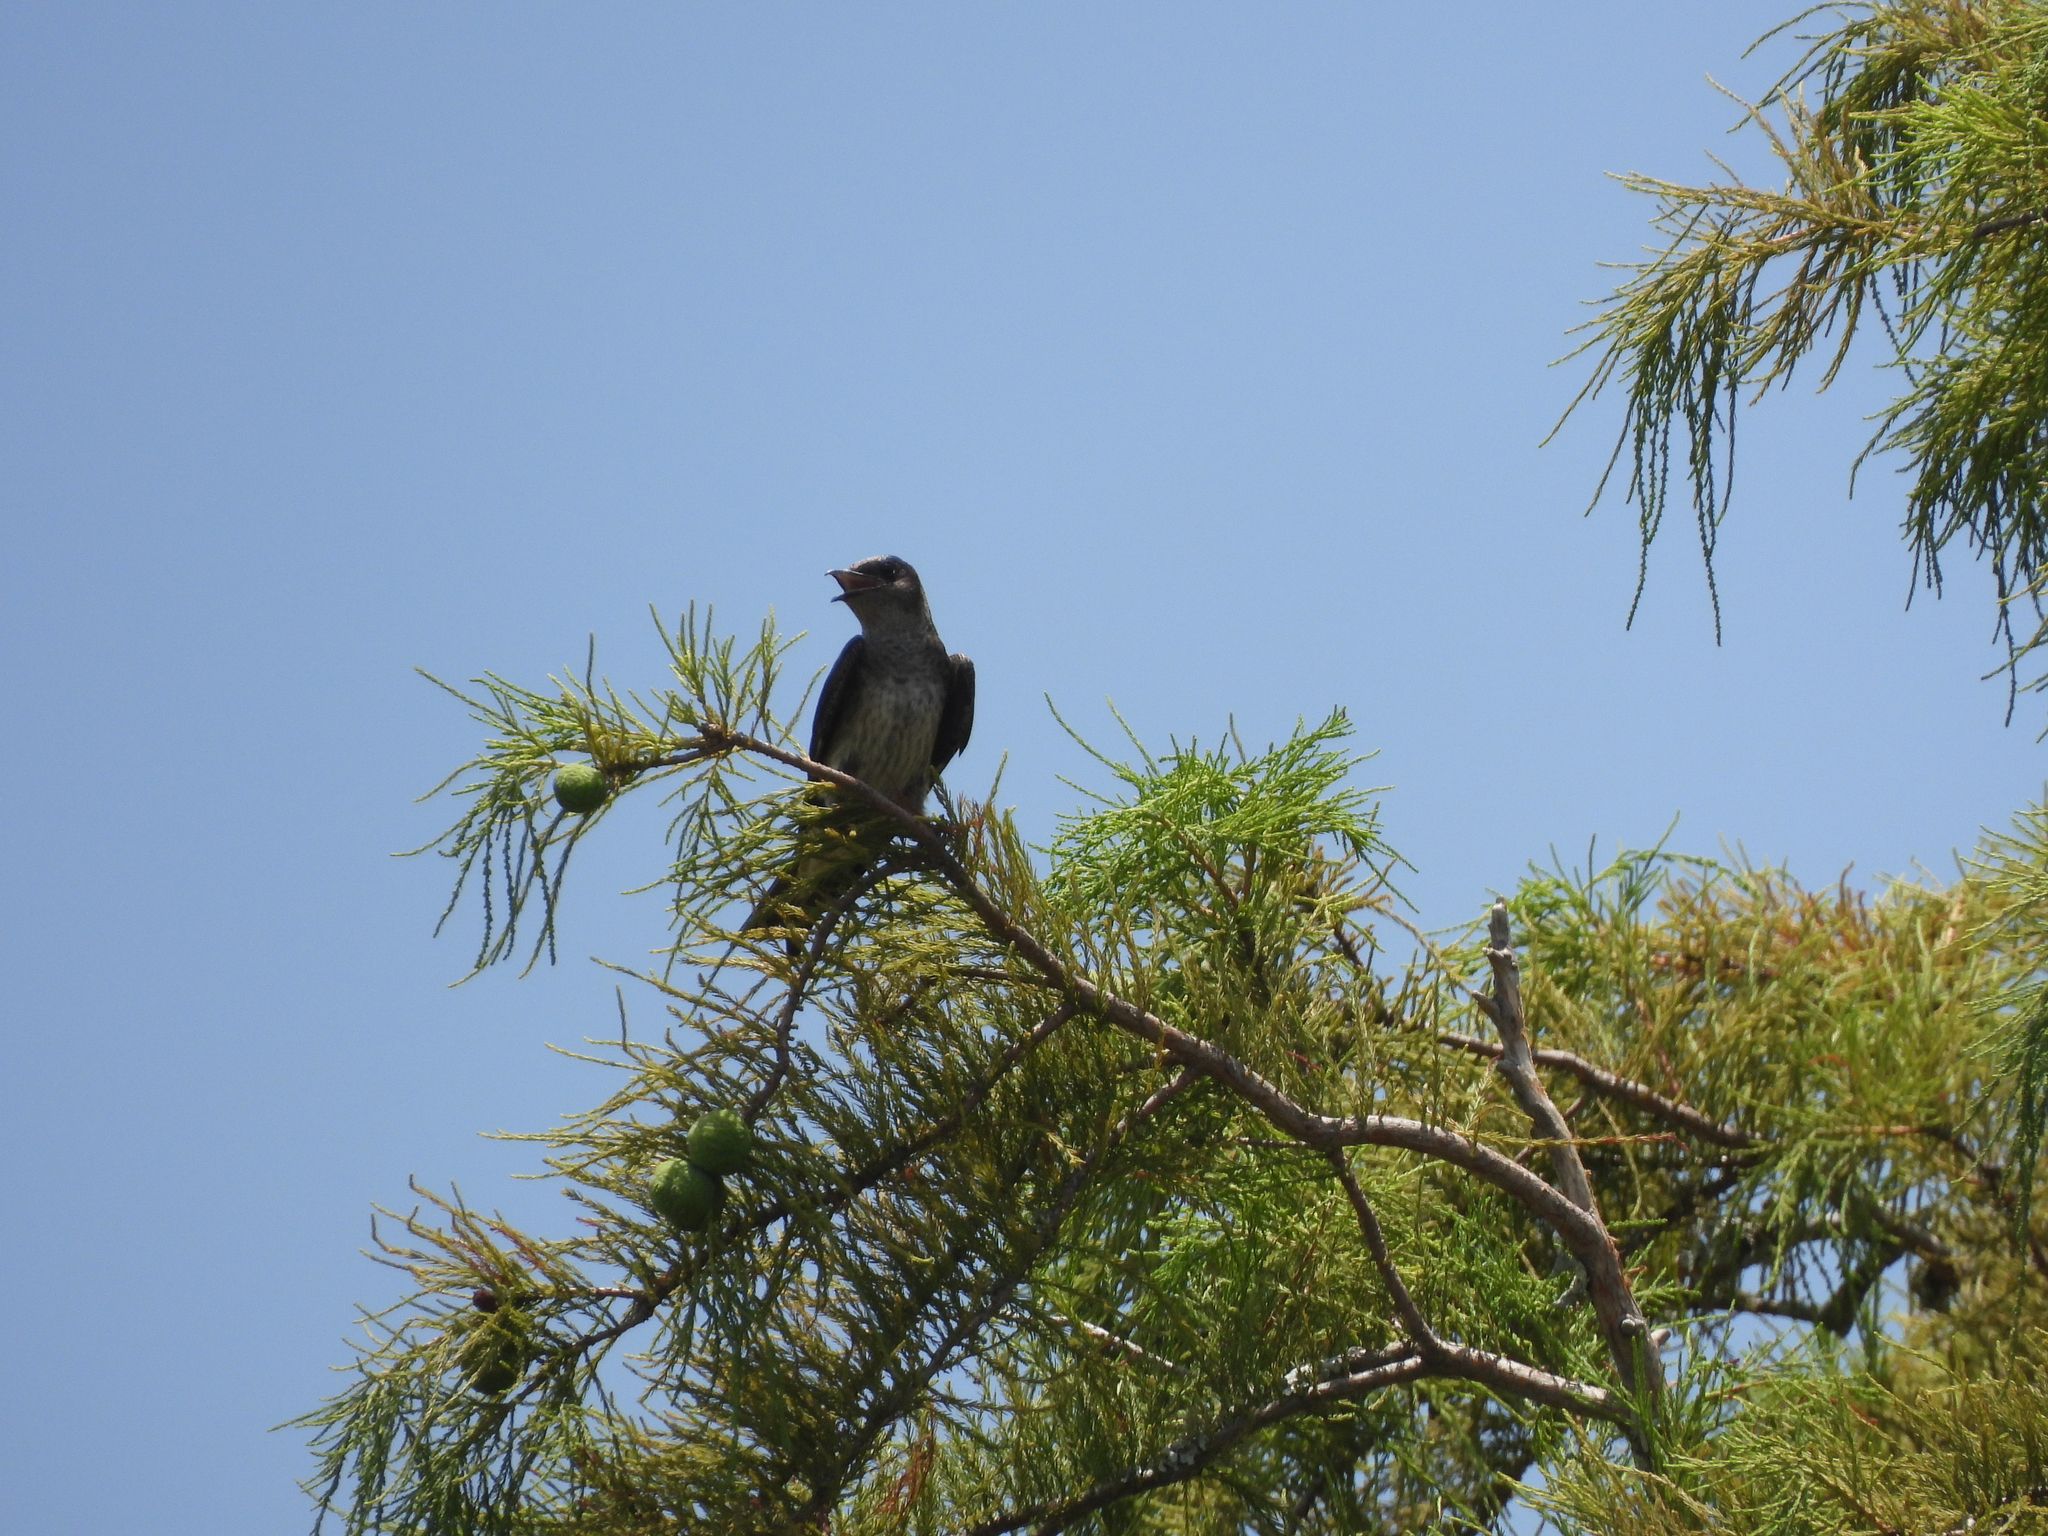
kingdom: Animalia
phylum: Chordata
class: Aves
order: Passeriformes
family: Hirundinidae
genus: Progne
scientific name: Progne subis
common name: Purple martin
